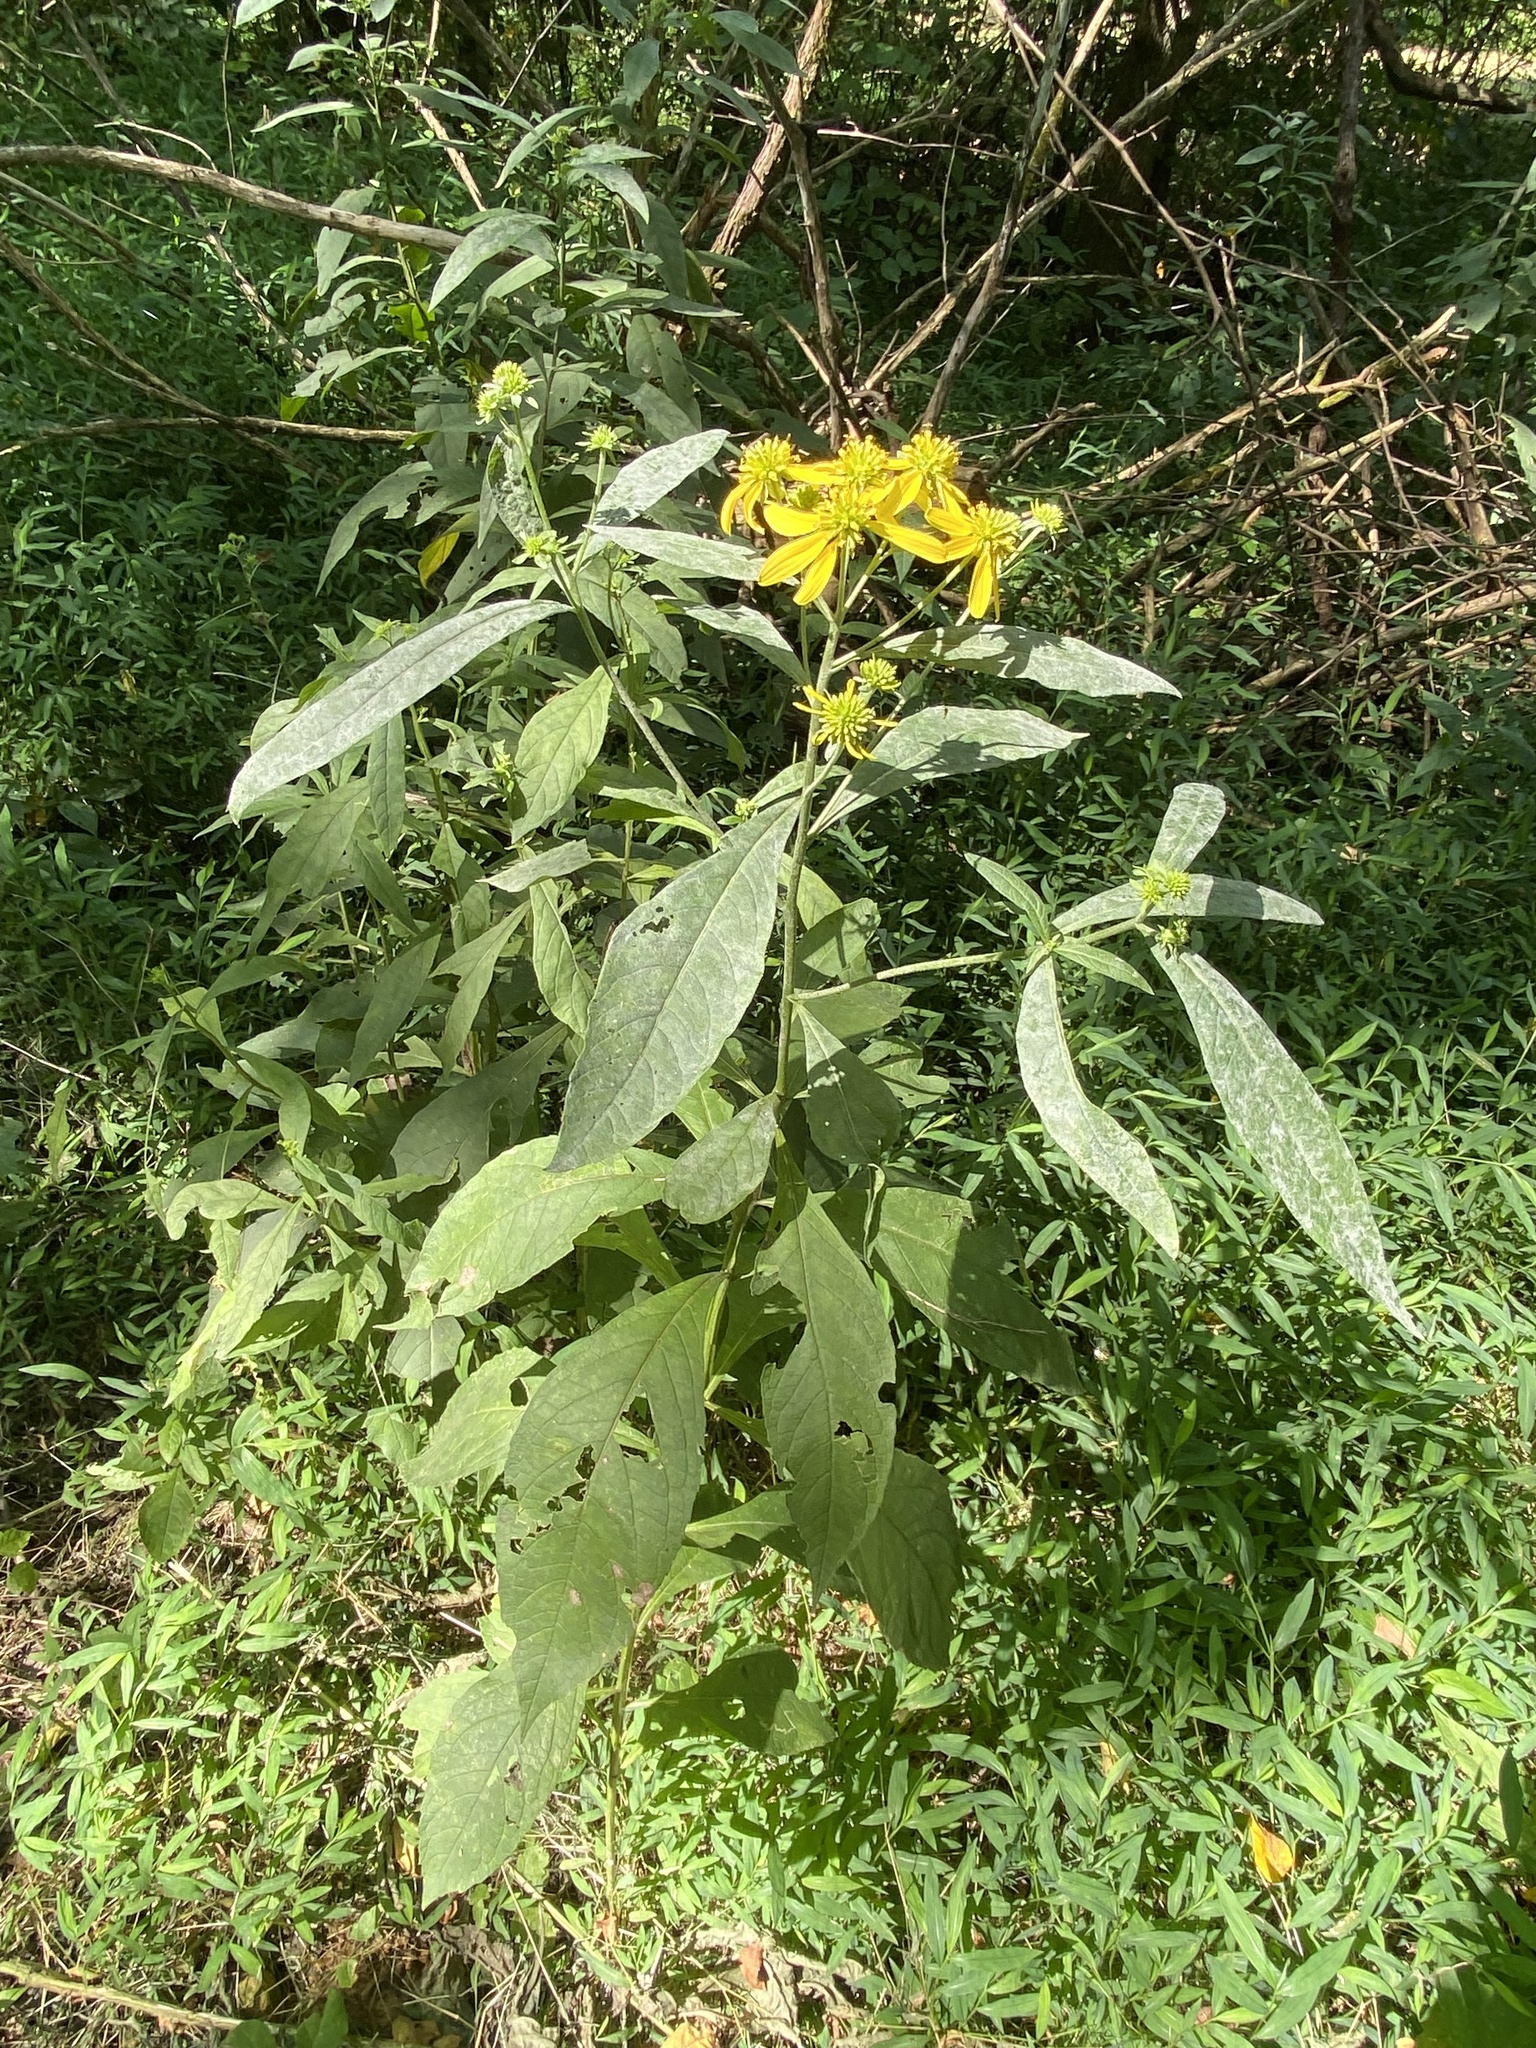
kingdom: Plantae
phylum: Tracheophyta
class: Magnoliopsida
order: Asterales
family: Asteraceae
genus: Verbesina
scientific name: Verbesina alternifolia
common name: Wingstem
